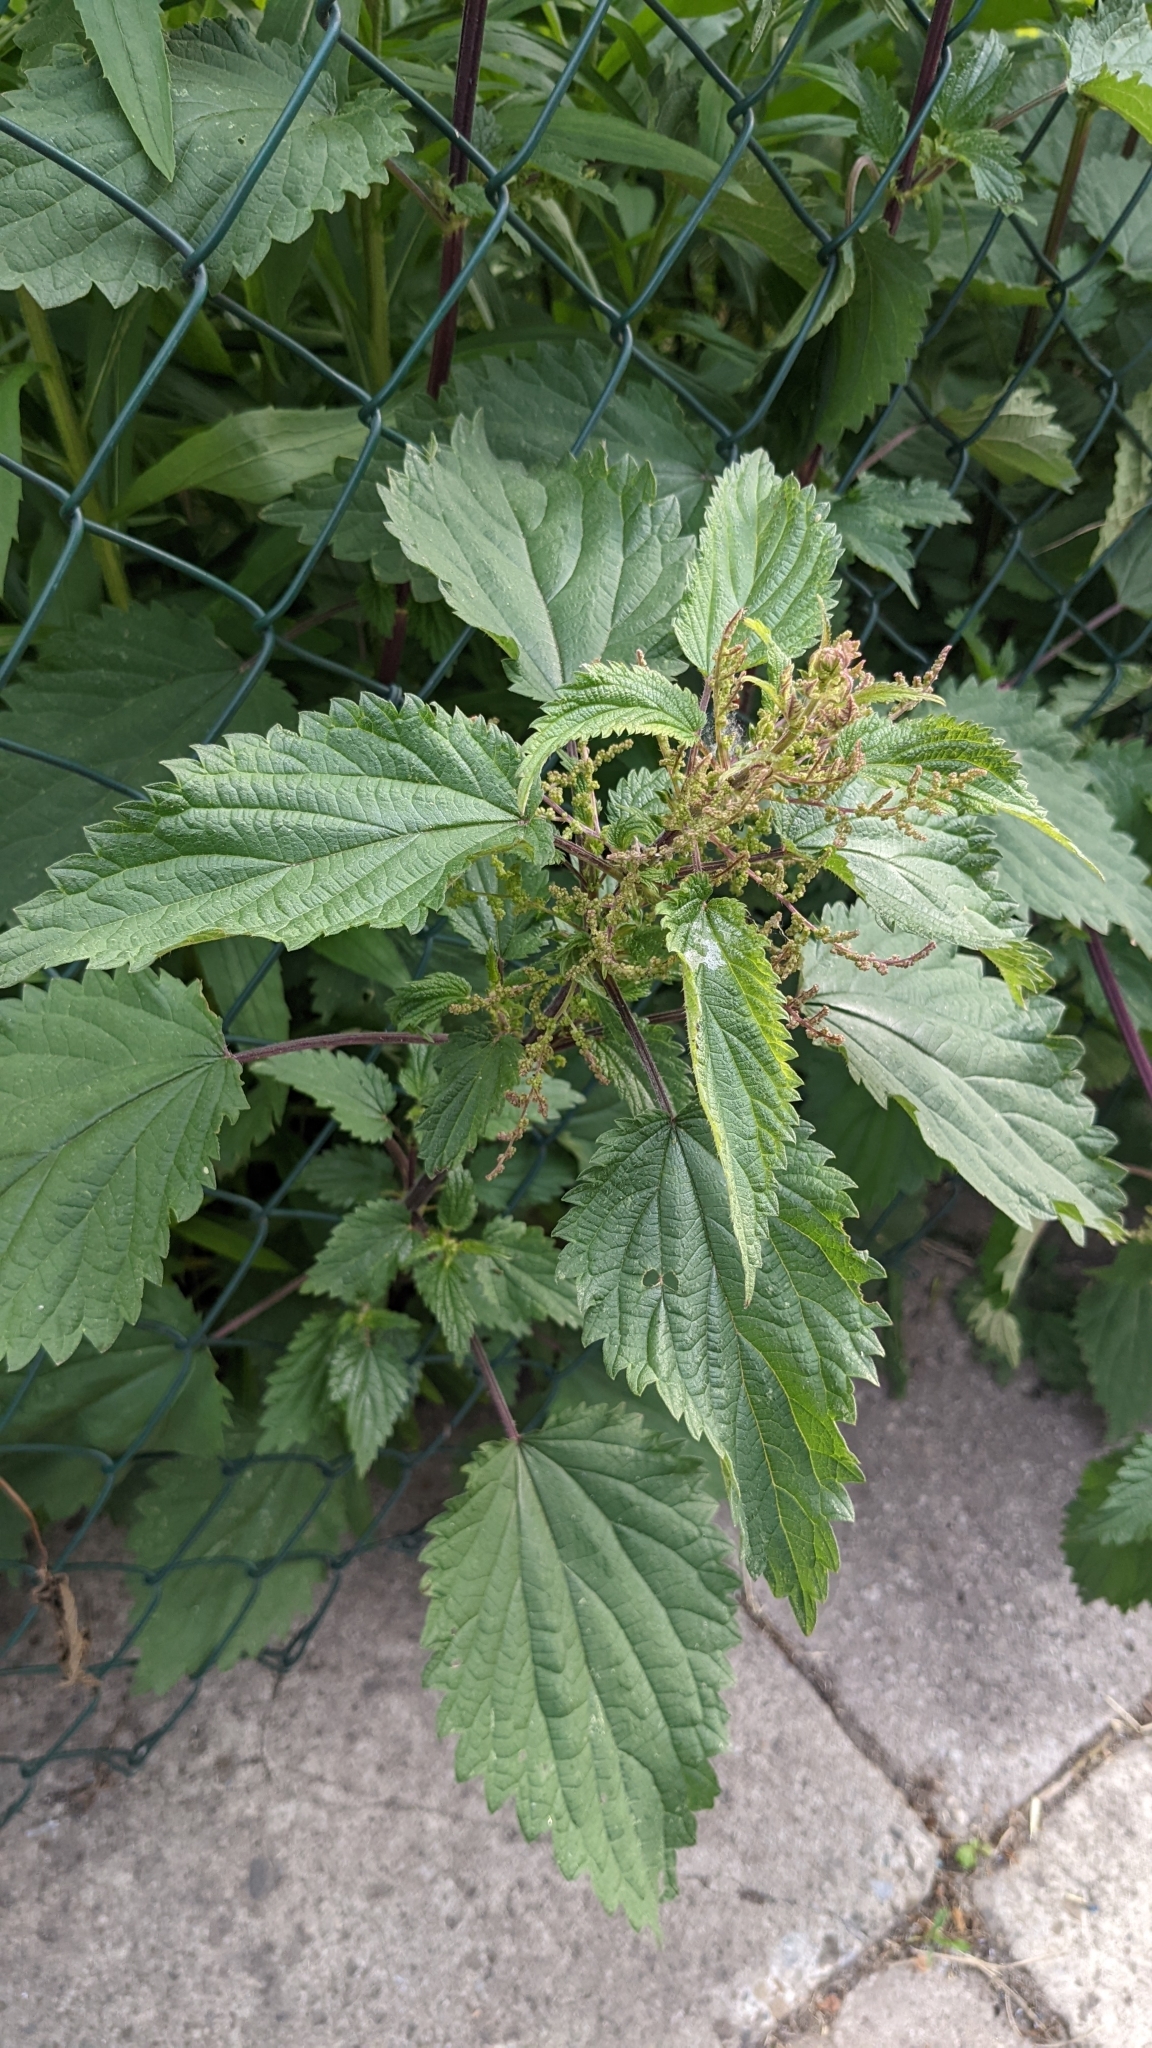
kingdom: Plantae
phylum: Tracheophyta
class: Magnoliopsida
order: Rosales
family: Urticaceae
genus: Urtica
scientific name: Urtica dioica
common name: Common nettle
